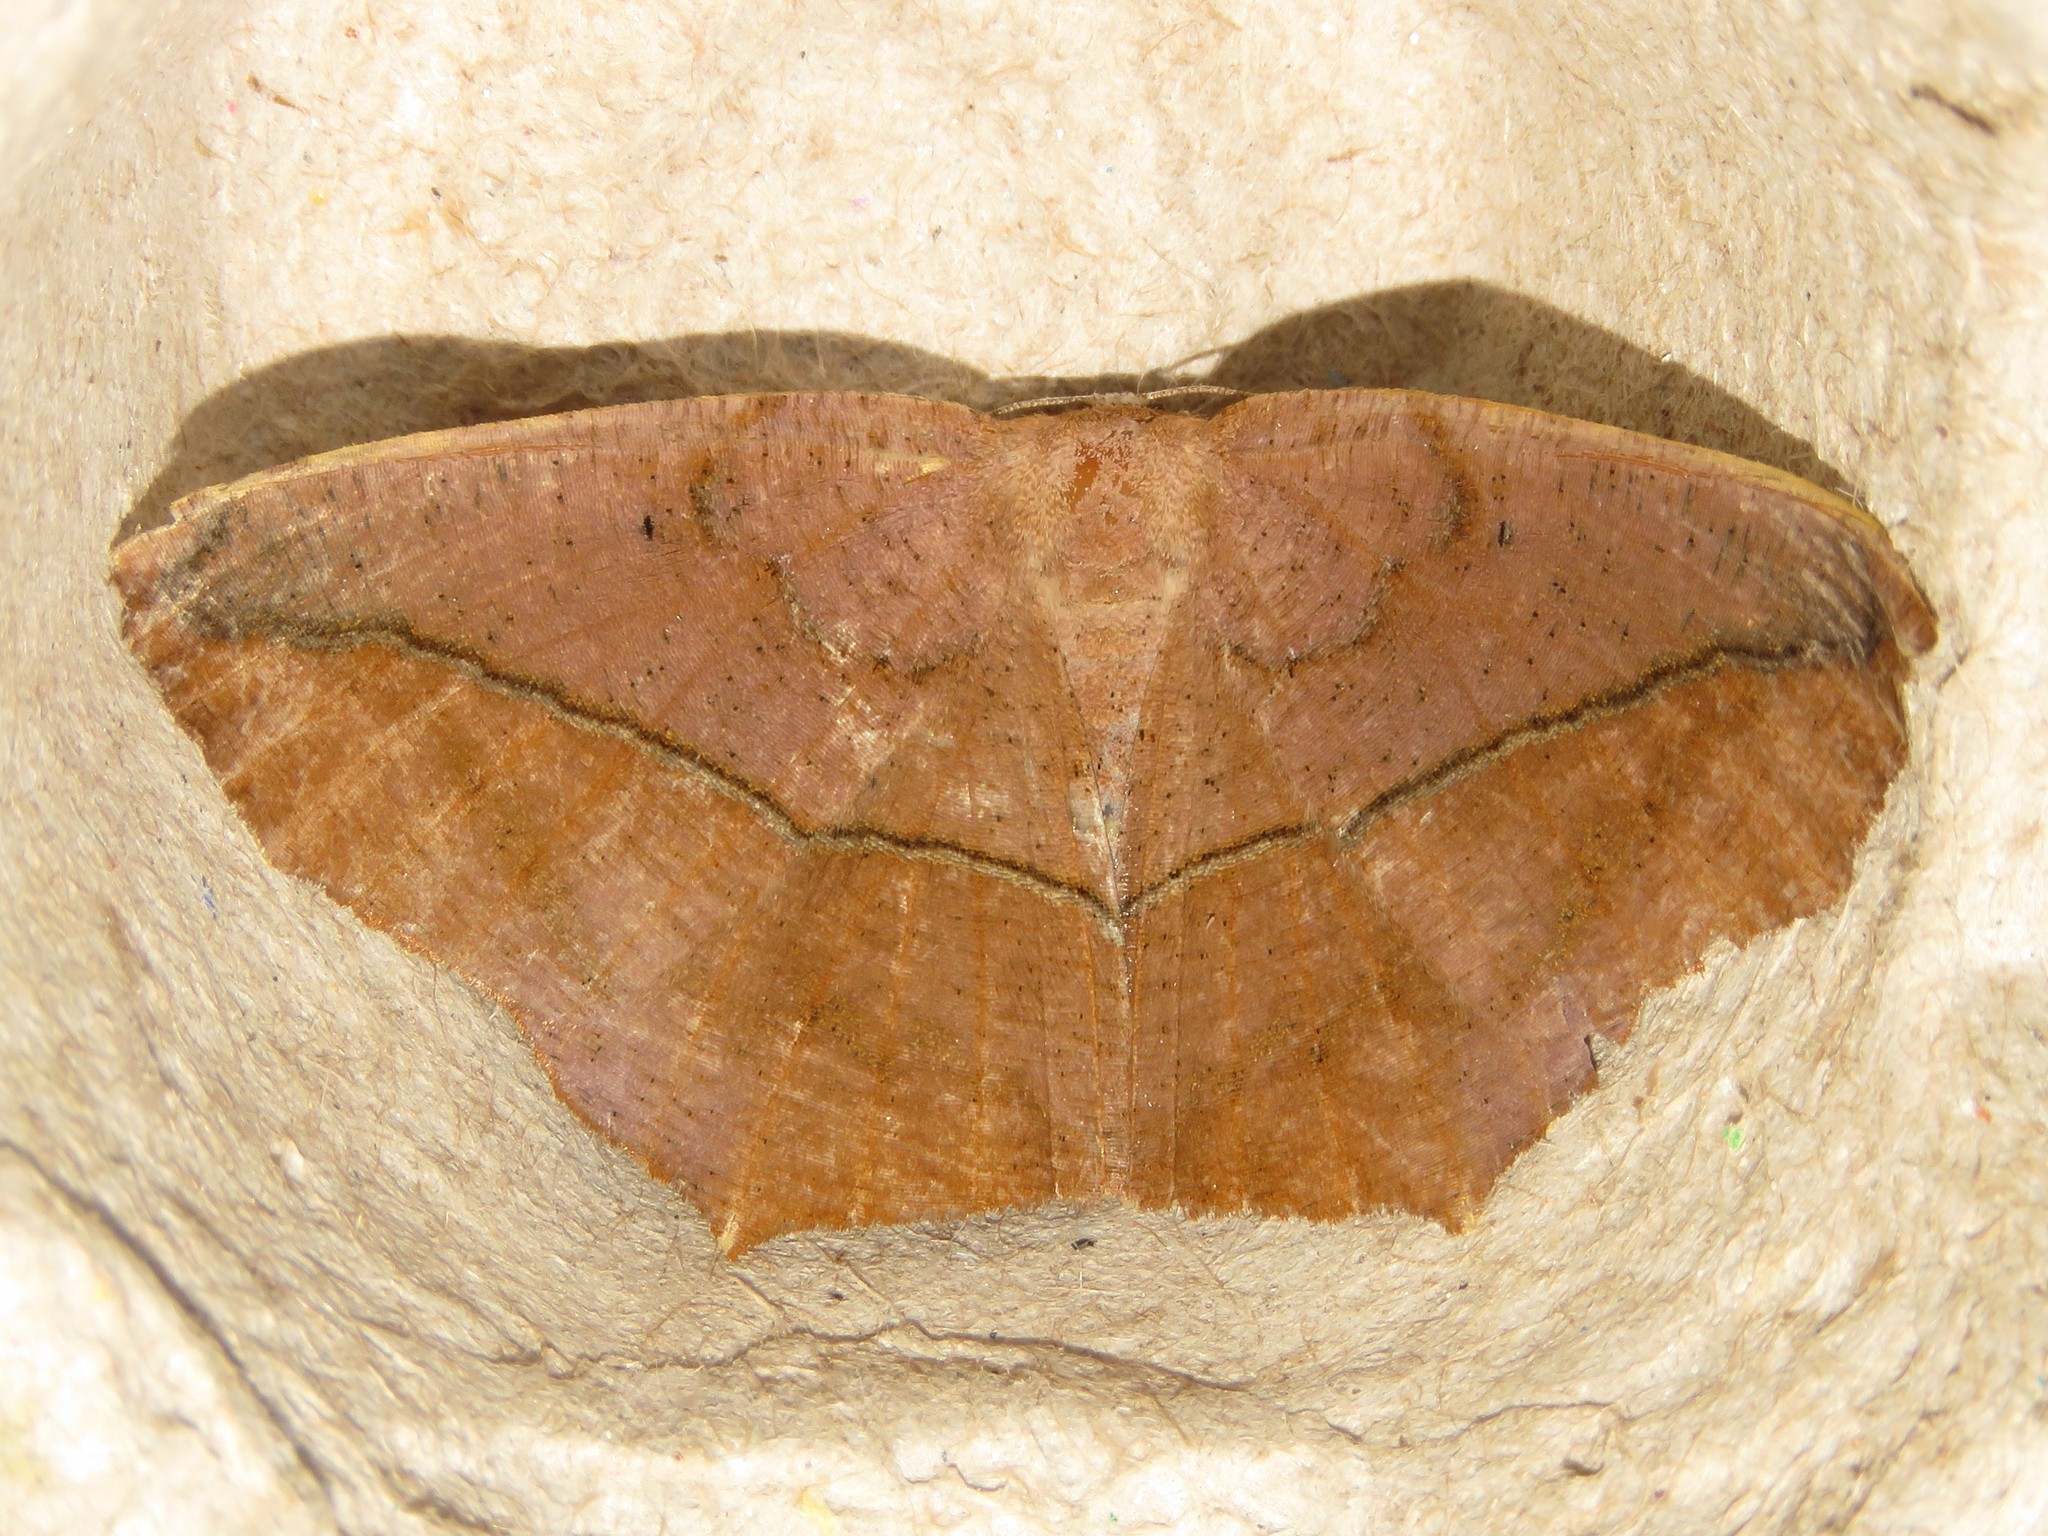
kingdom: Animalia
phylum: Arthropoda
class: Insecta
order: Lepidoptera
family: Geometridae
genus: Prochoerodes
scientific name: Prochoerodes lineola
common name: Large maple spanworm
